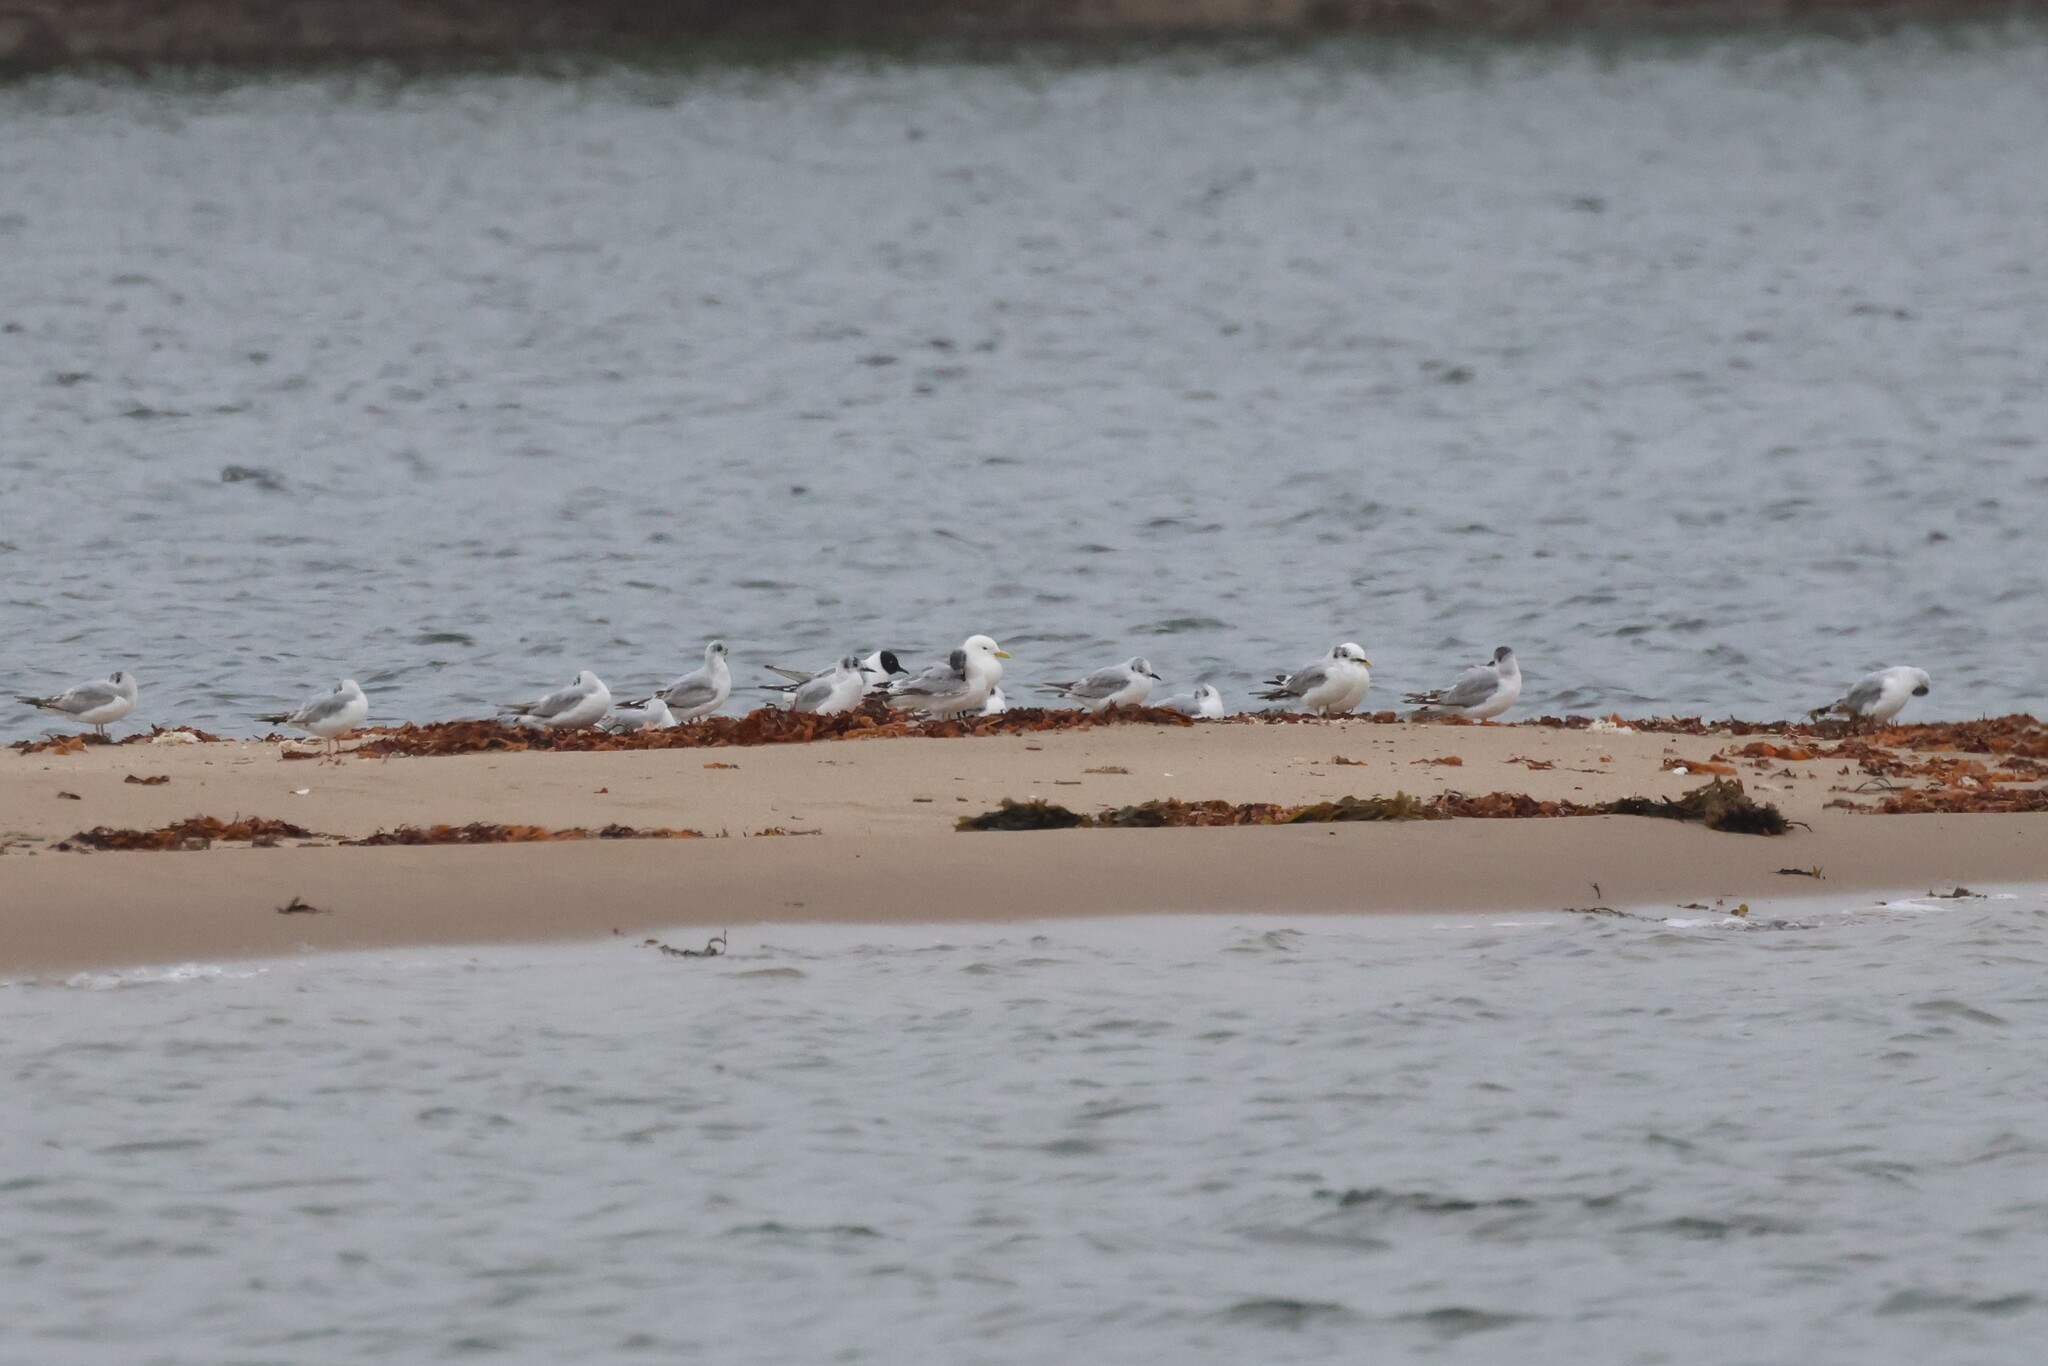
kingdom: Animalia
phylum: Chordata
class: Aves
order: Charadriiformes
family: Laridae
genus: Chroicocephalus
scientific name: Chroicocephalus philadelphia
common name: Bonaparte's gull
